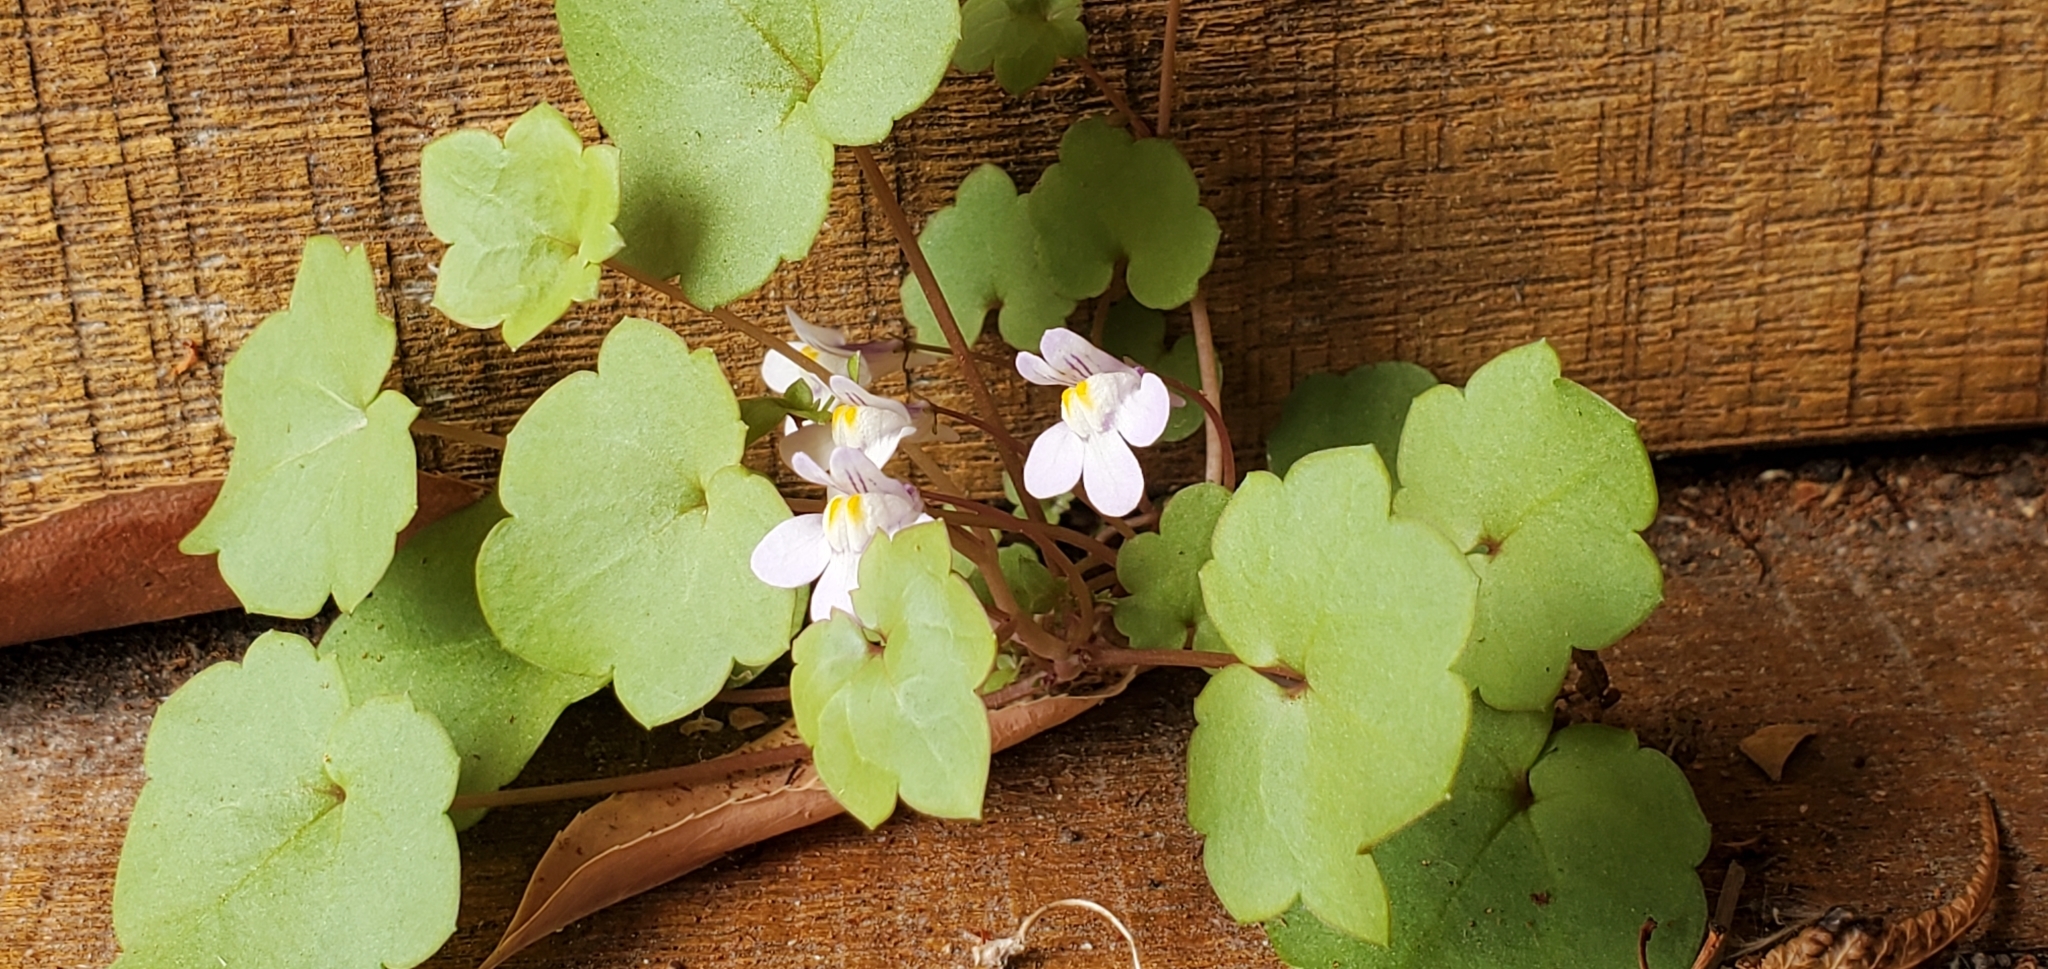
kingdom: Plantae
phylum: Tracheophyta
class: Magnoliopsida
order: Lamiales
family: Plantaginaceae
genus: Cymbalaria
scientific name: Cymbalaria muralis
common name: Ivy-leaved toadflax
